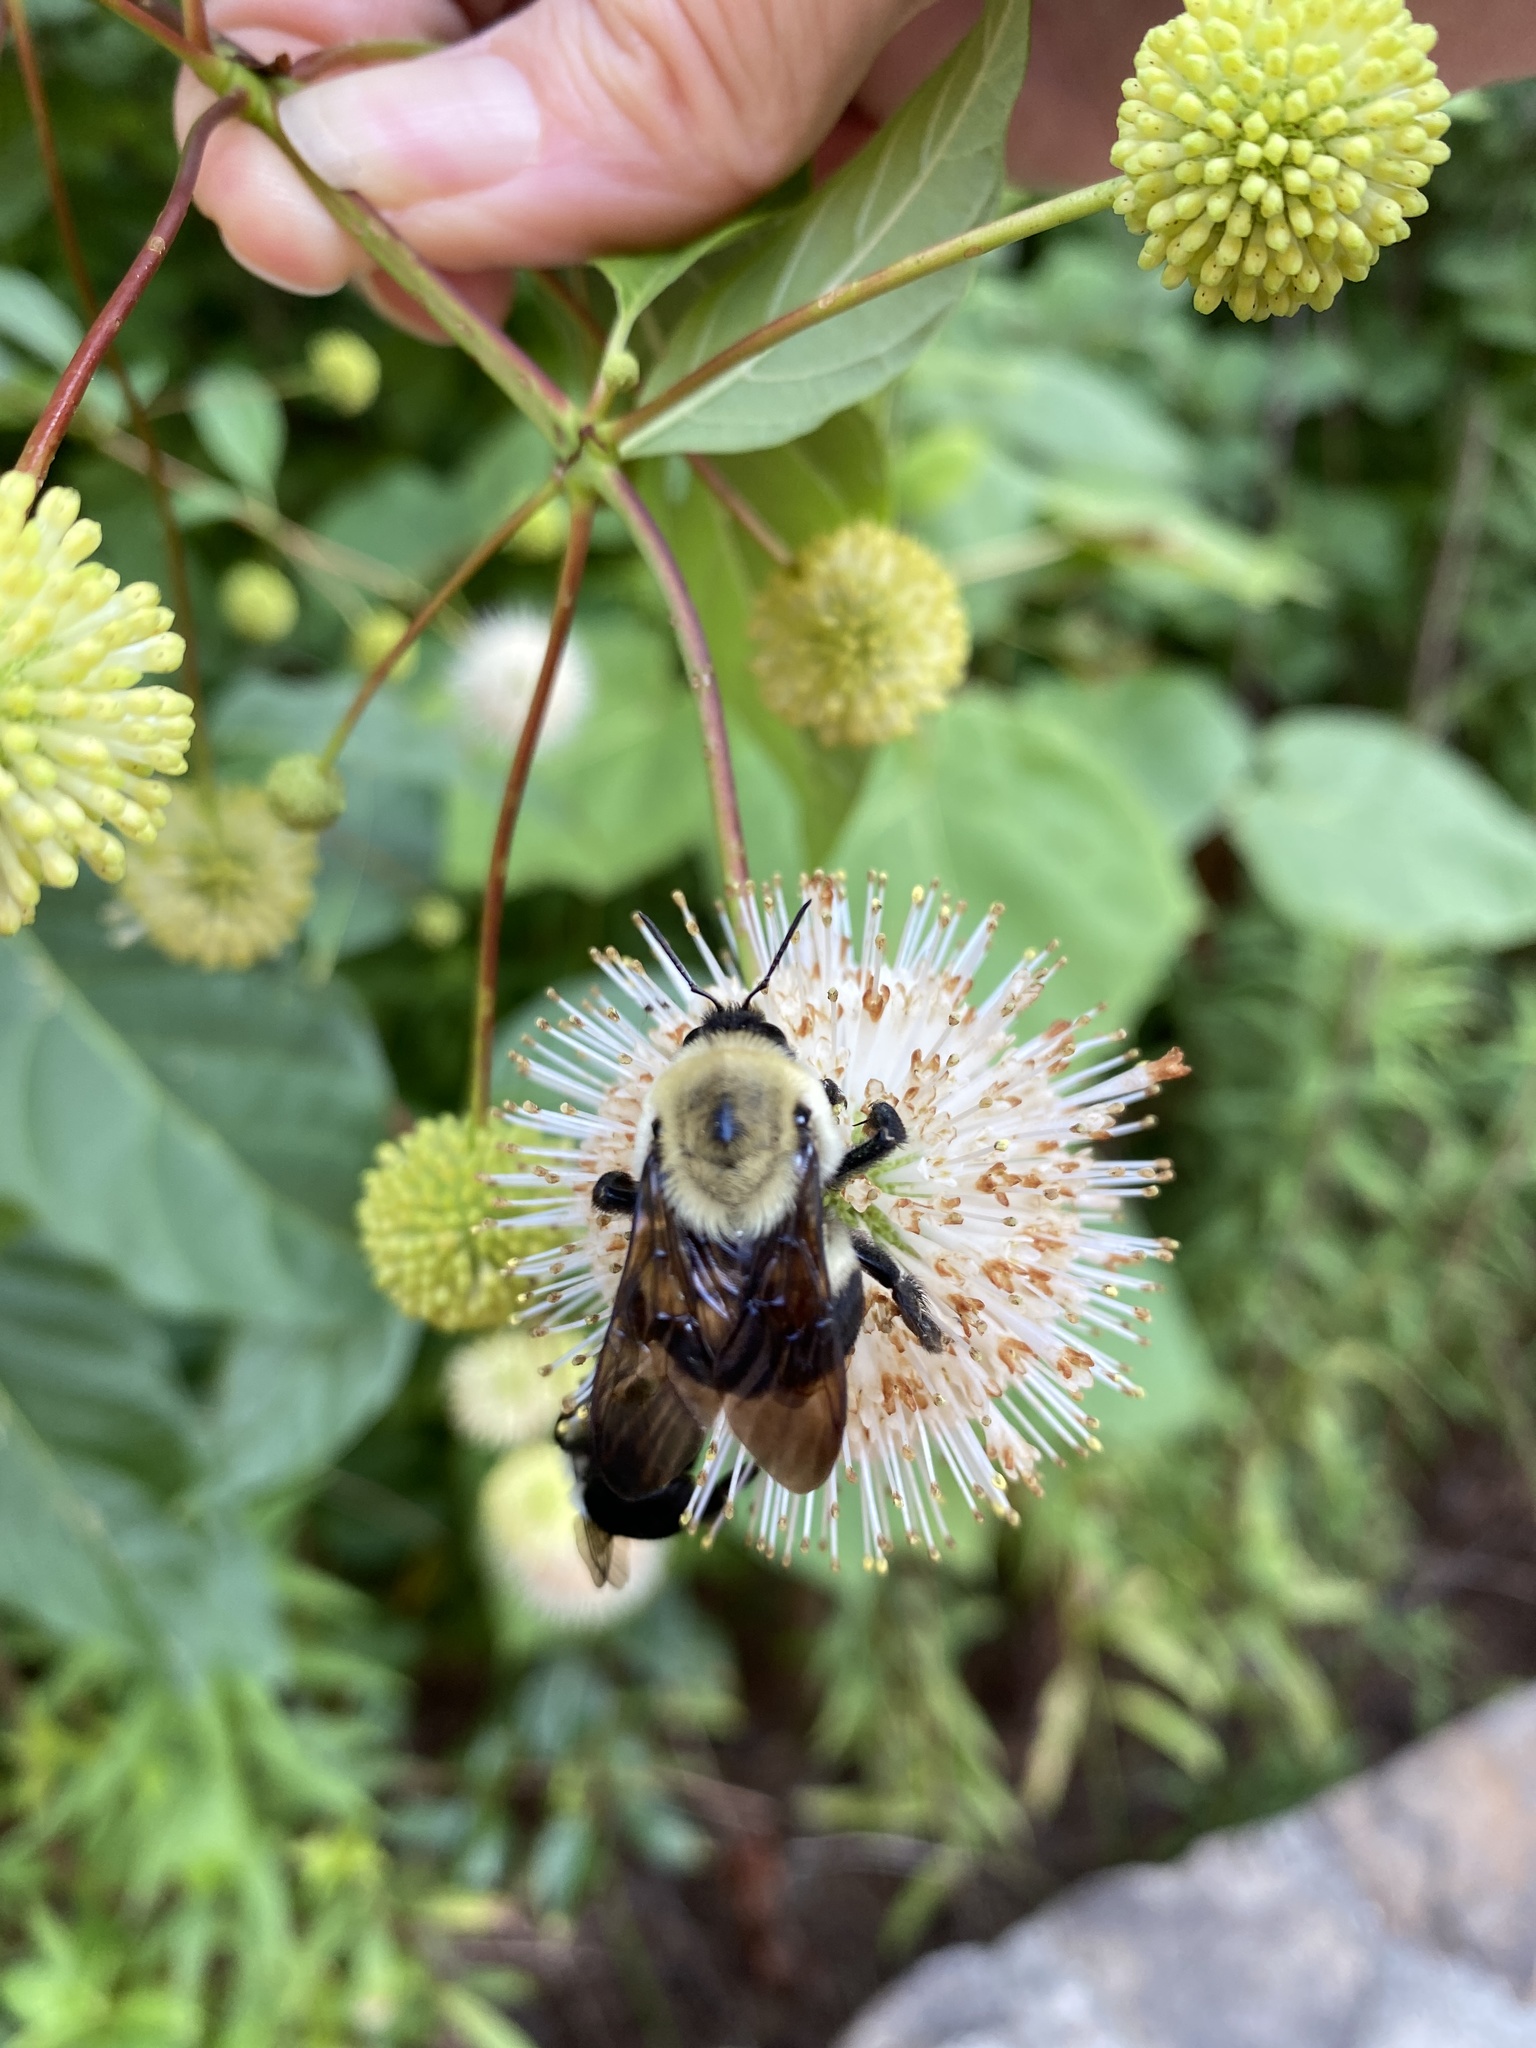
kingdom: Animalia
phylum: Arthropoda
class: Insecta
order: Hymenoptera
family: Apidae
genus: Bombus
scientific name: Bombus griseocollis
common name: Brown-belted bumble bee
